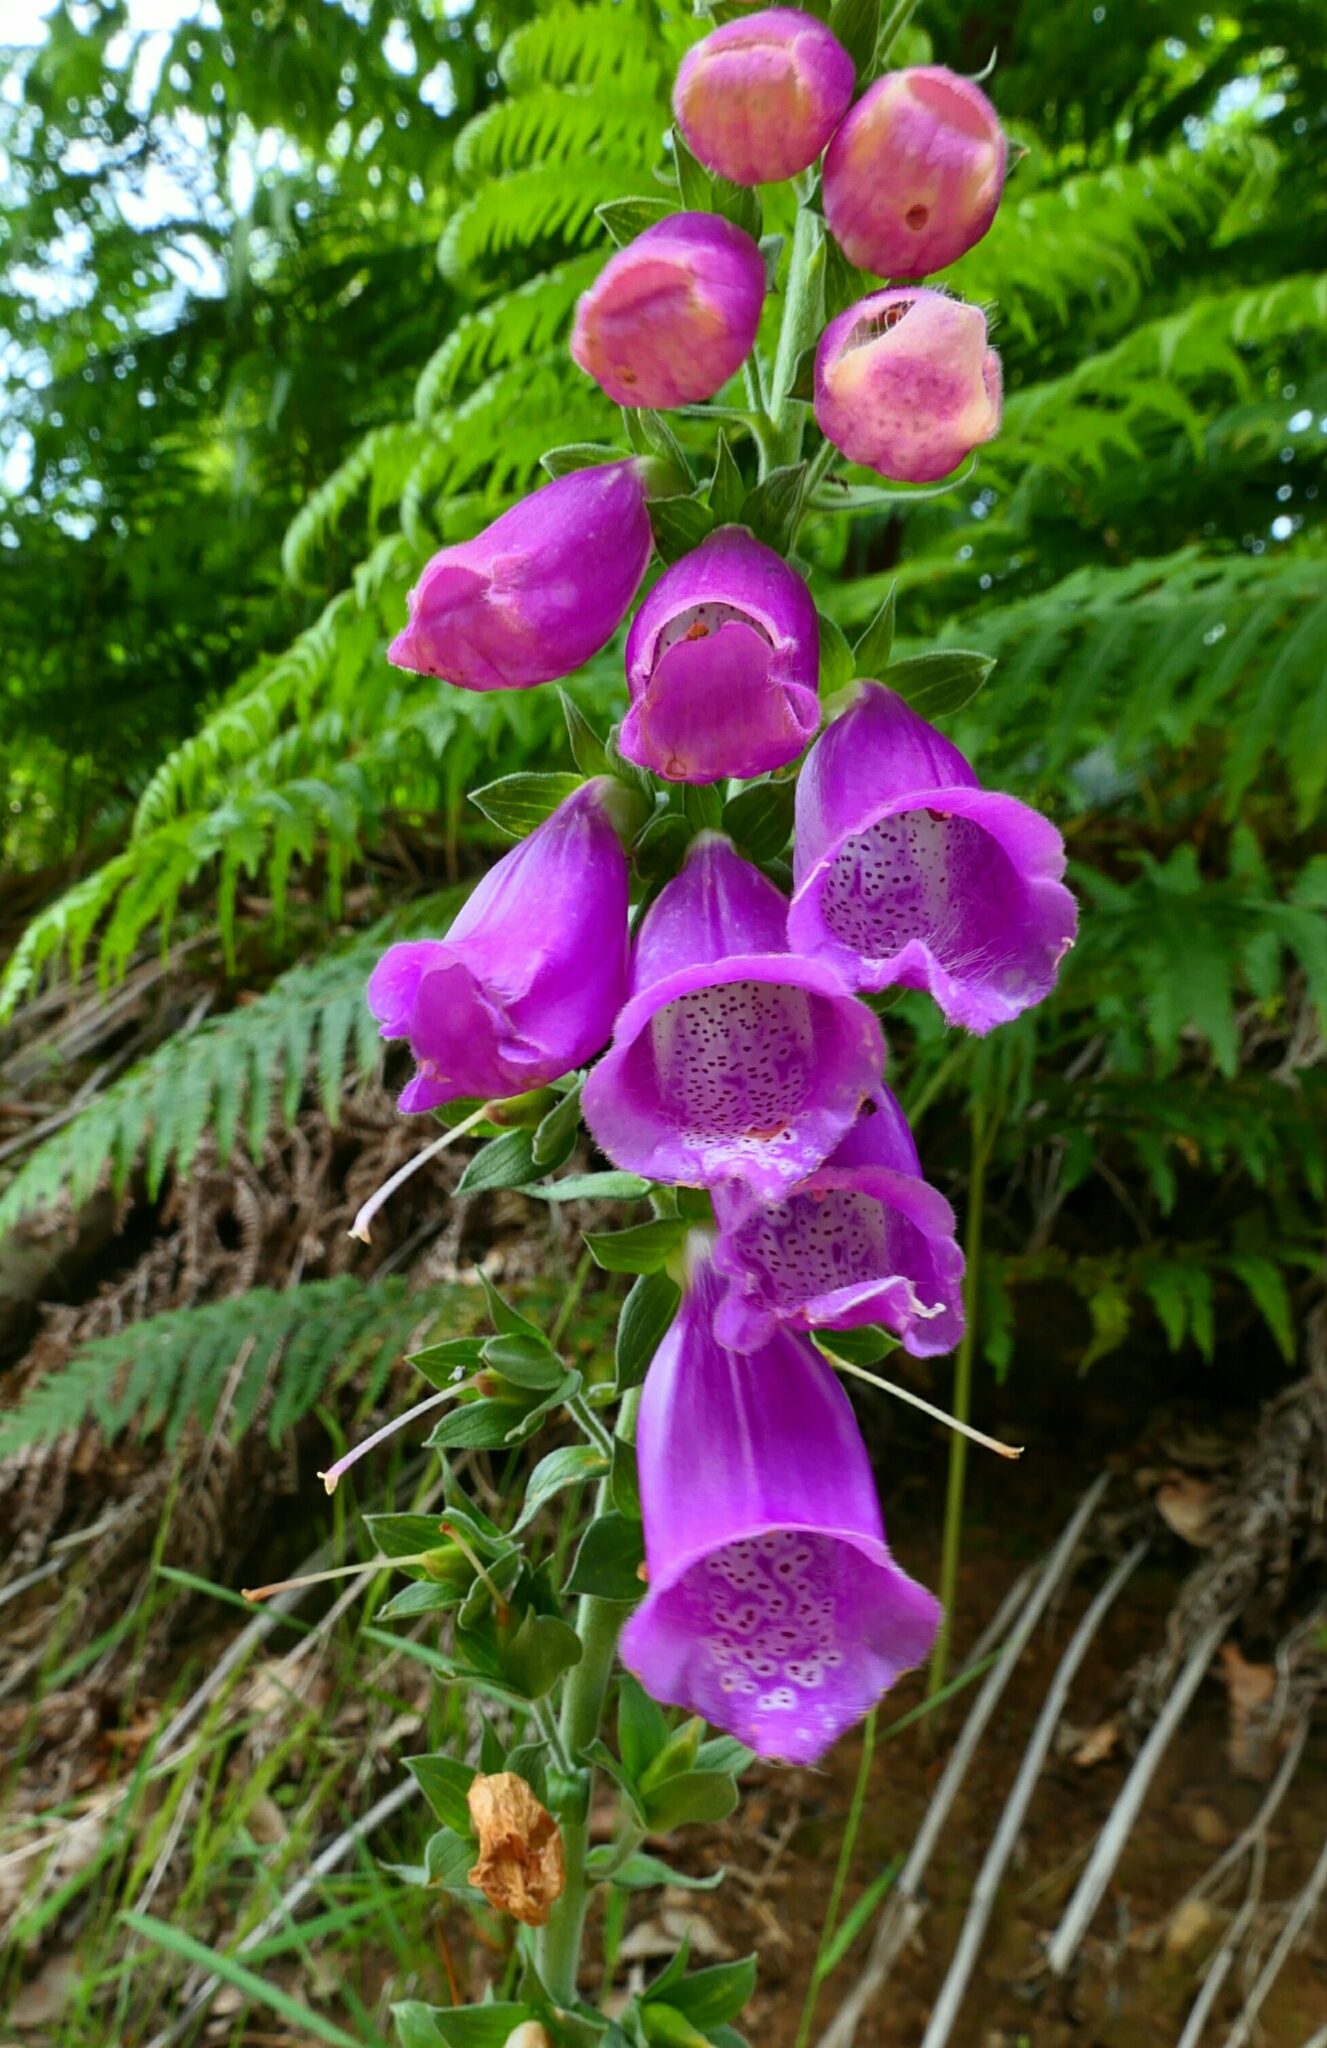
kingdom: Plantae
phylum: Tracheophyta
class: Magnoliopsida
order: Lamiales
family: Plantaginaceae
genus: Digitalis
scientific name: Digitalis purpurea
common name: Foxglove
